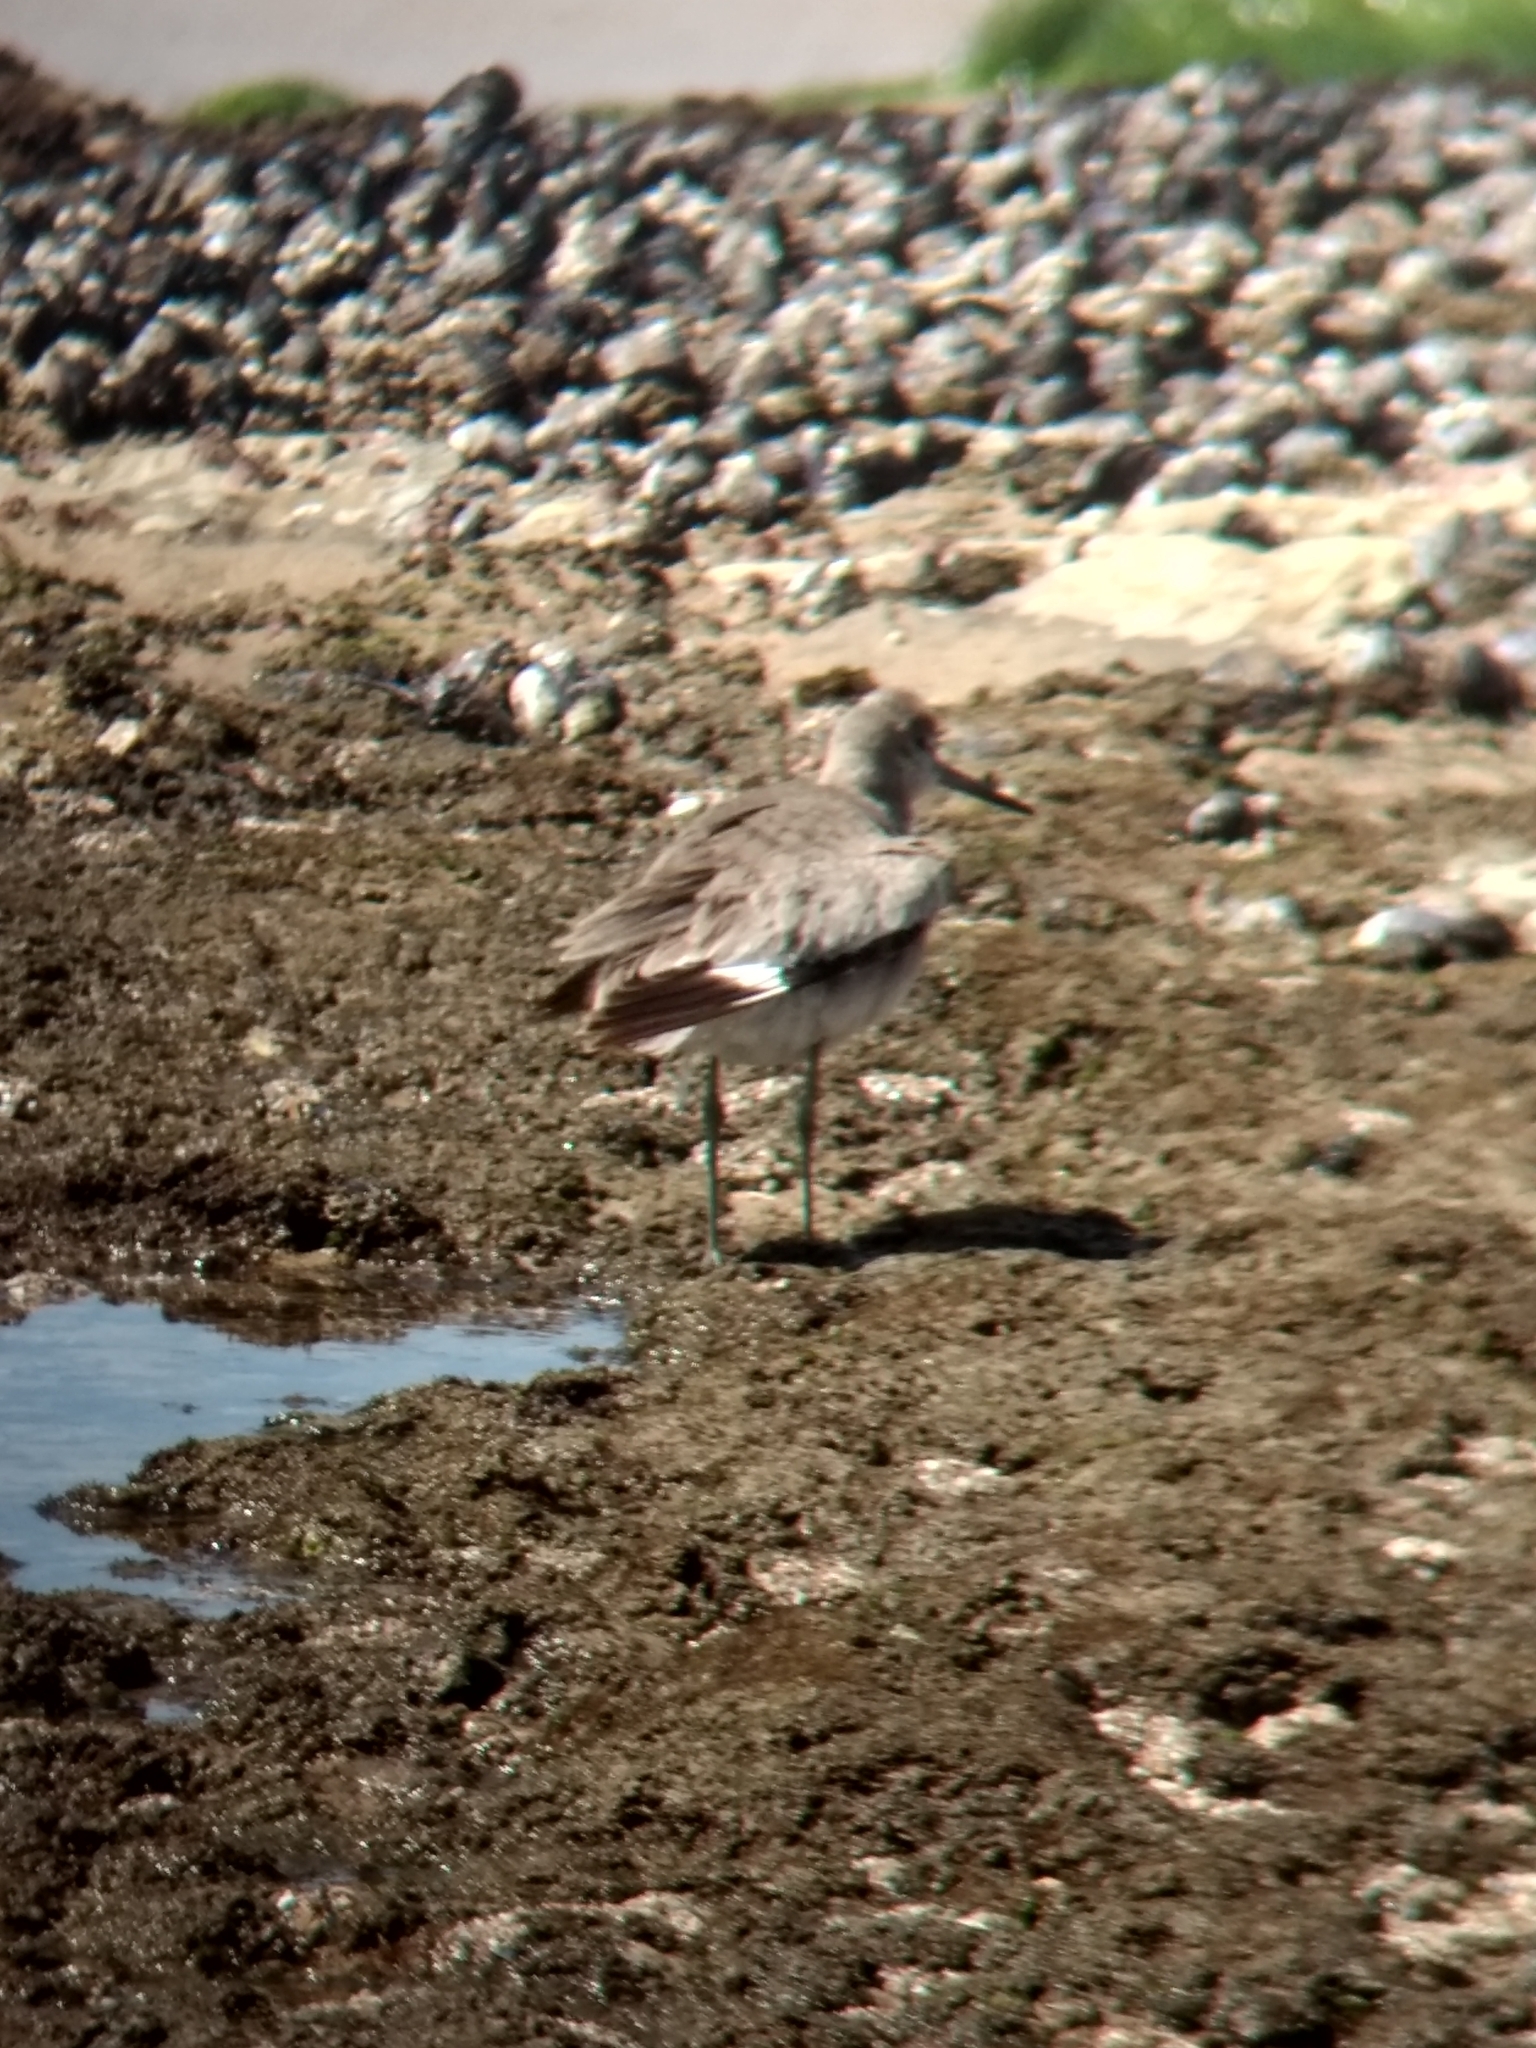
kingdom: Animalia
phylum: Chordata
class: Aves
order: Charadriiformes
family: Scolopacidae
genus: Tringa
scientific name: Tringa semipalmata
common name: Willet
